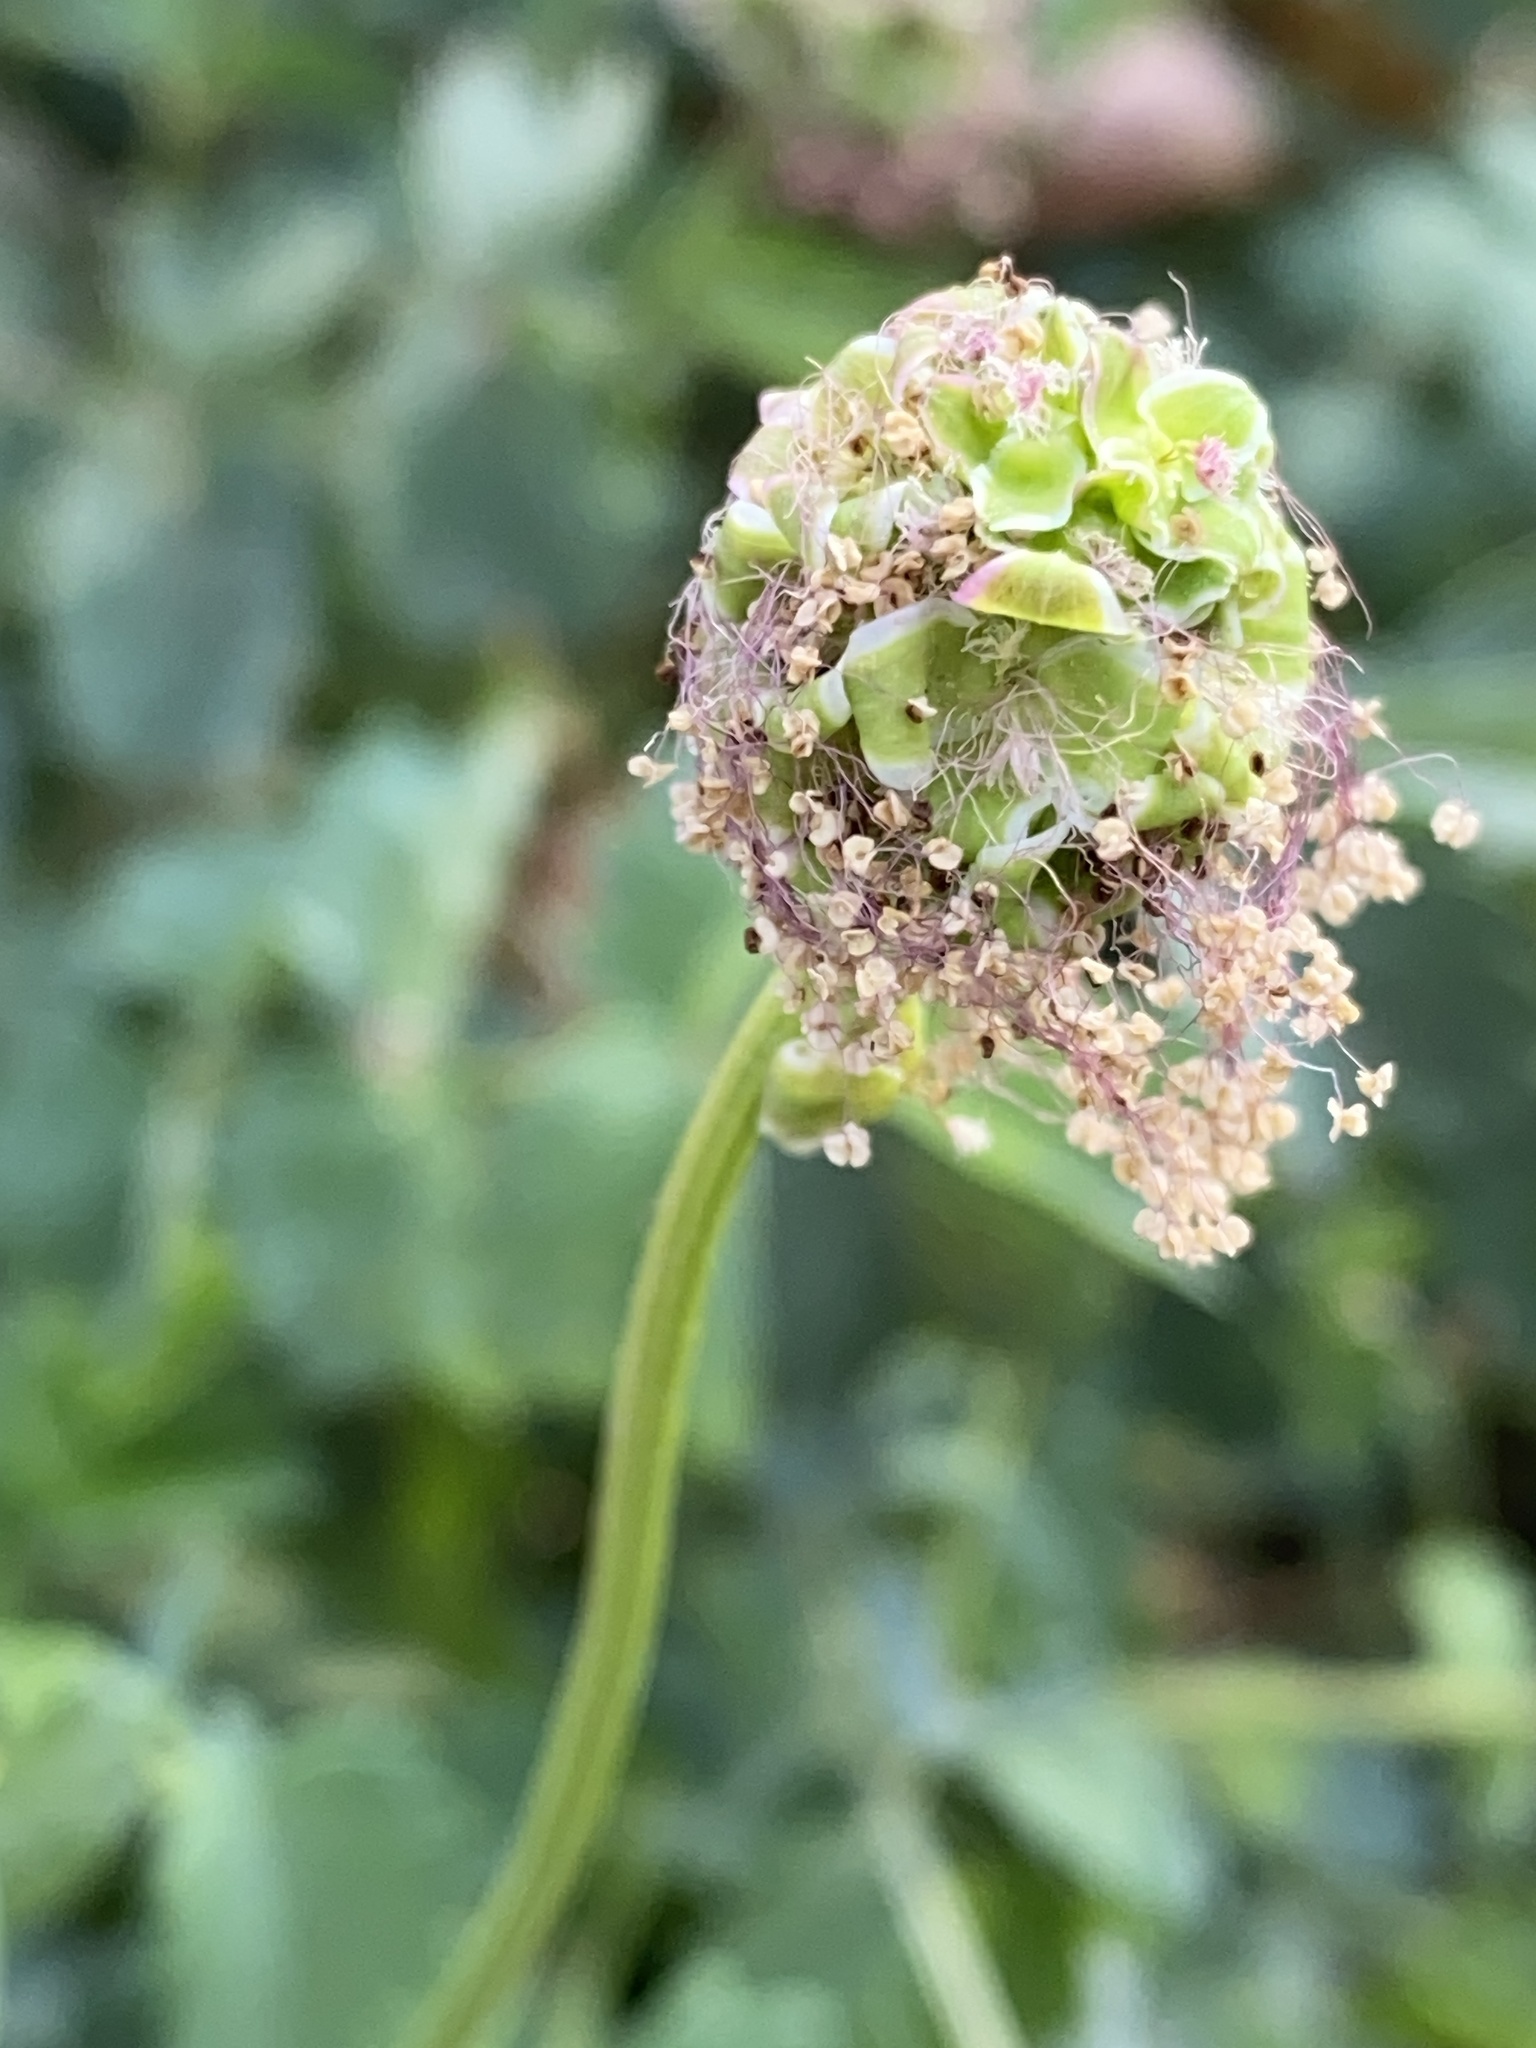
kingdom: Plantae
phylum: Tracheophyta
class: Magnoliopsida
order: Rosales
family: Rosaceae
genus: Poterium
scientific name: Poterium sanguisorba
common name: Salad burnet
